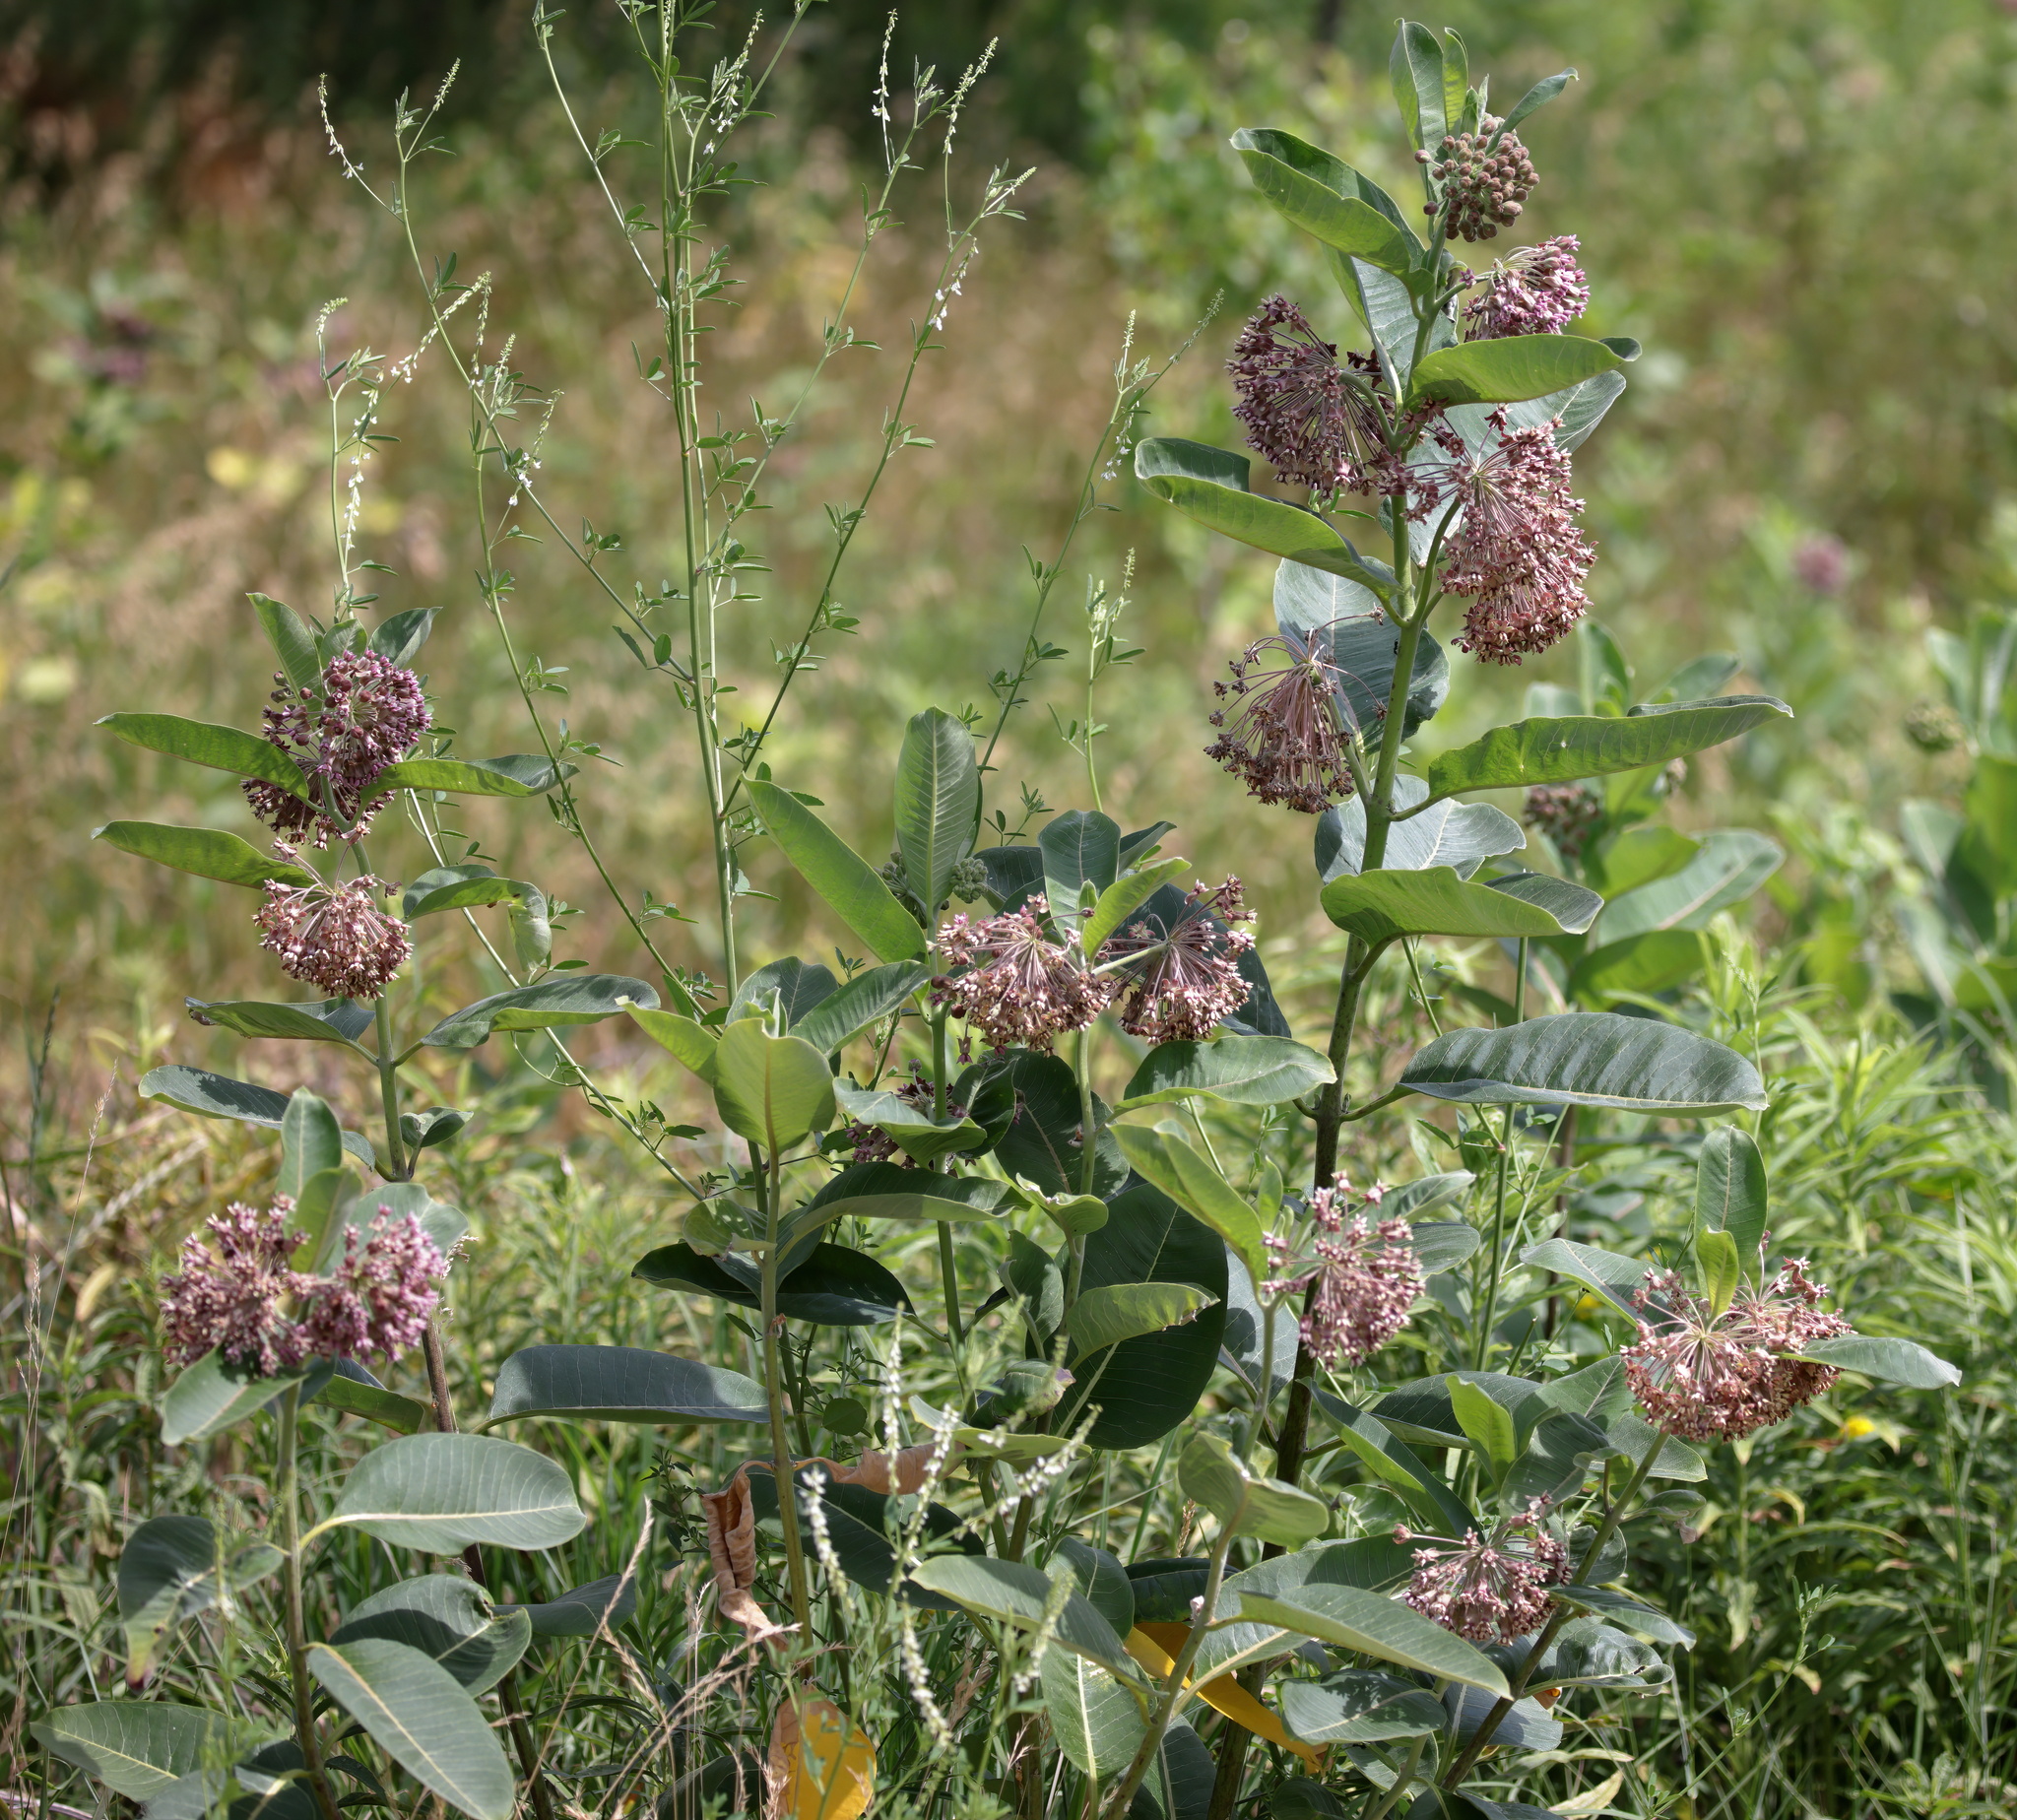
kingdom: Plantae
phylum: Tracheophyta
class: Magnoliopsida
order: Gentianales
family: Apocynaceae
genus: Asclepias
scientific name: Asclepias syriaca
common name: Common milkweed
